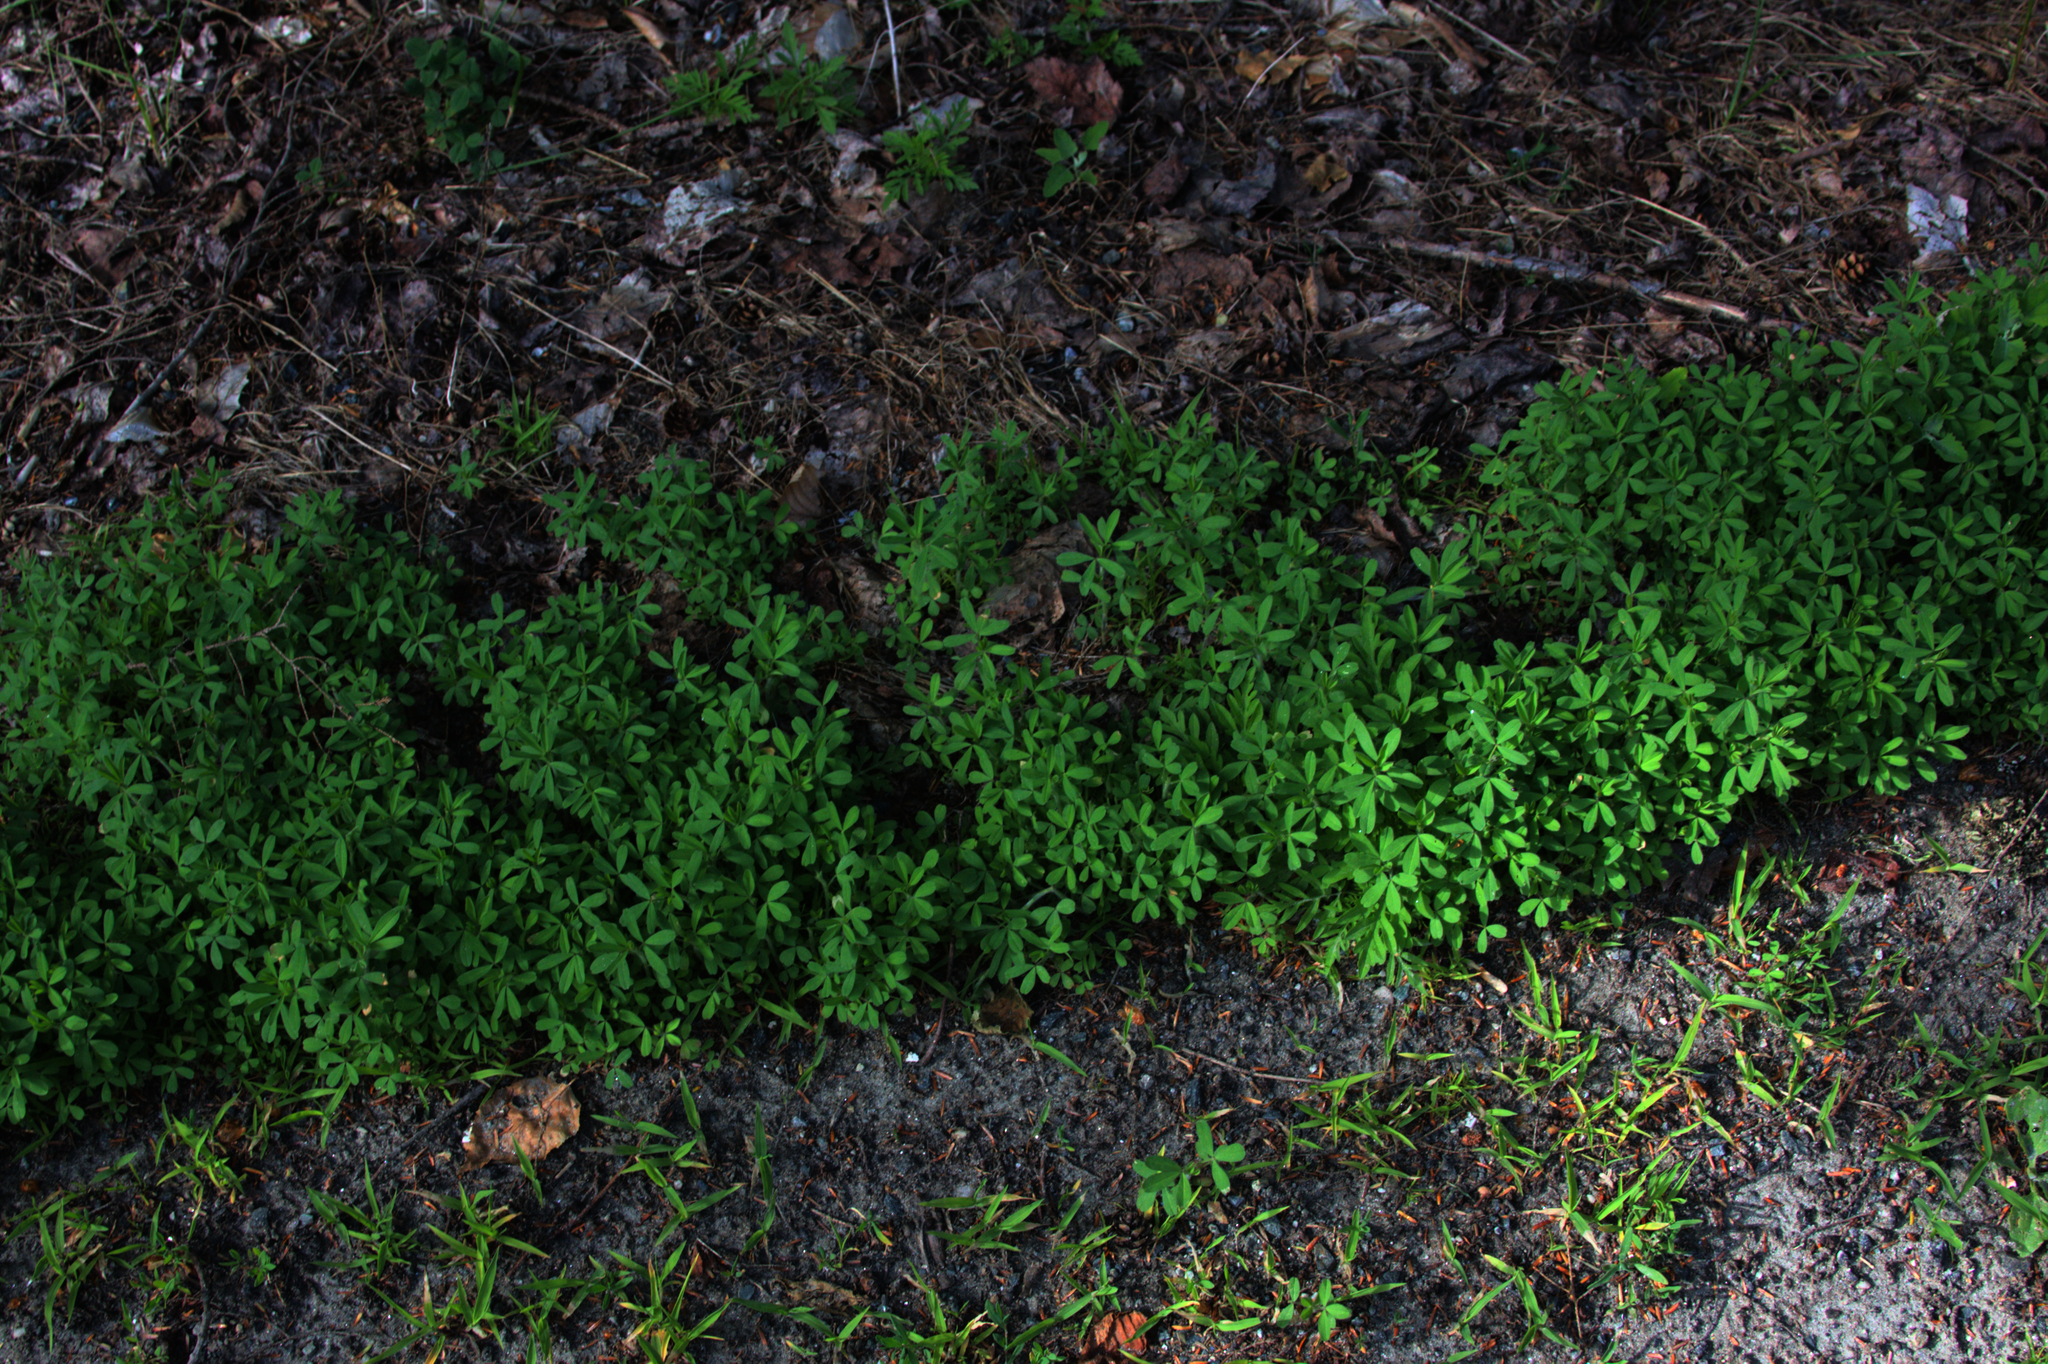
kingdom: Plantae
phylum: Tracheophyta
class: Magnoliopsida
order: Fabales
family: Fabaceae
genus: Trifolium
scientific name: Trifolium arvense
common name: Hare's-foot clover
